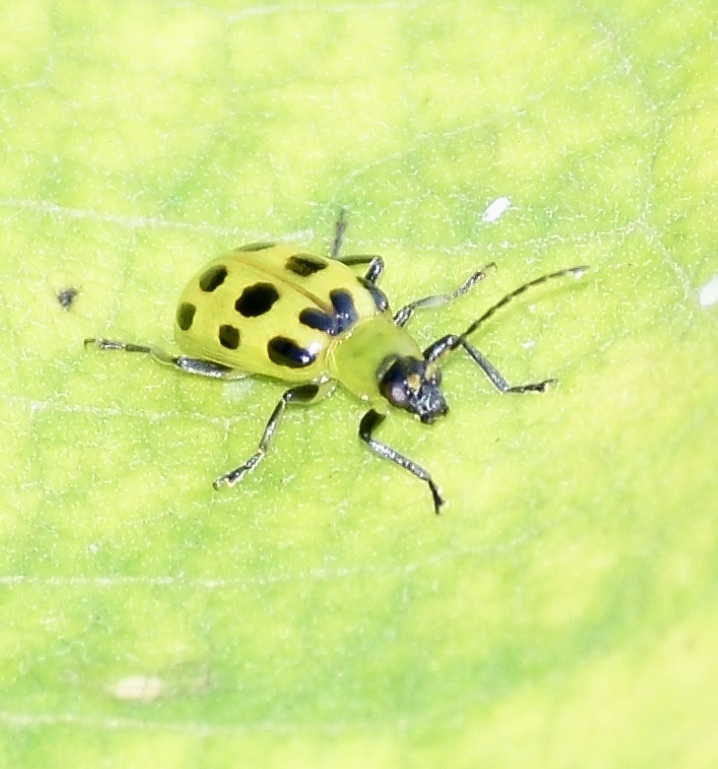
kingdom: Animalia
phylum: Arthropoda
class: Insecta
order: Coleoptera
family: Chrysomelidae
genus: Diabrotica
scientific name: Diabrotica undecimpunctata
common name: Spotted cucumber beetle
